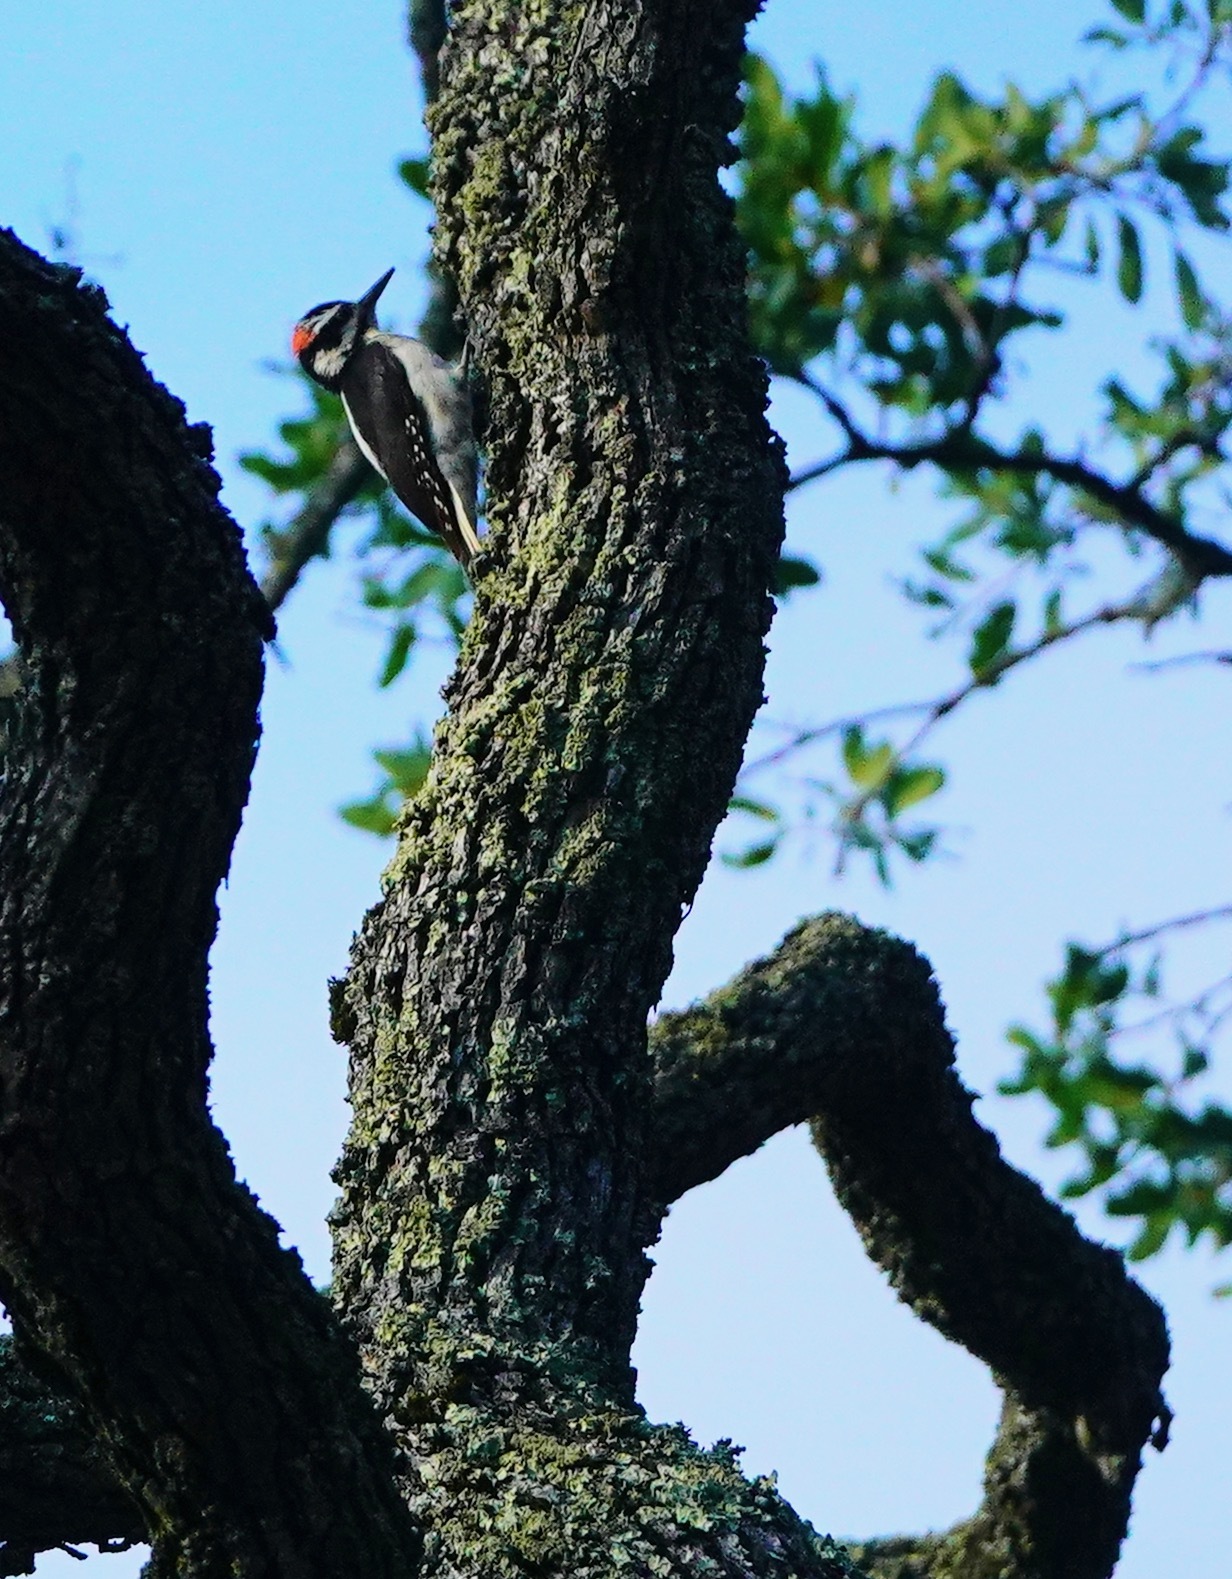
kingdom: Animalia
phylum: Chordata
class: Aves
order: Piciformes
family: Picidae
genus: Leuconotopicus
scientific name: Leuconotopicus villosus
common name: Hairy woodpecker
